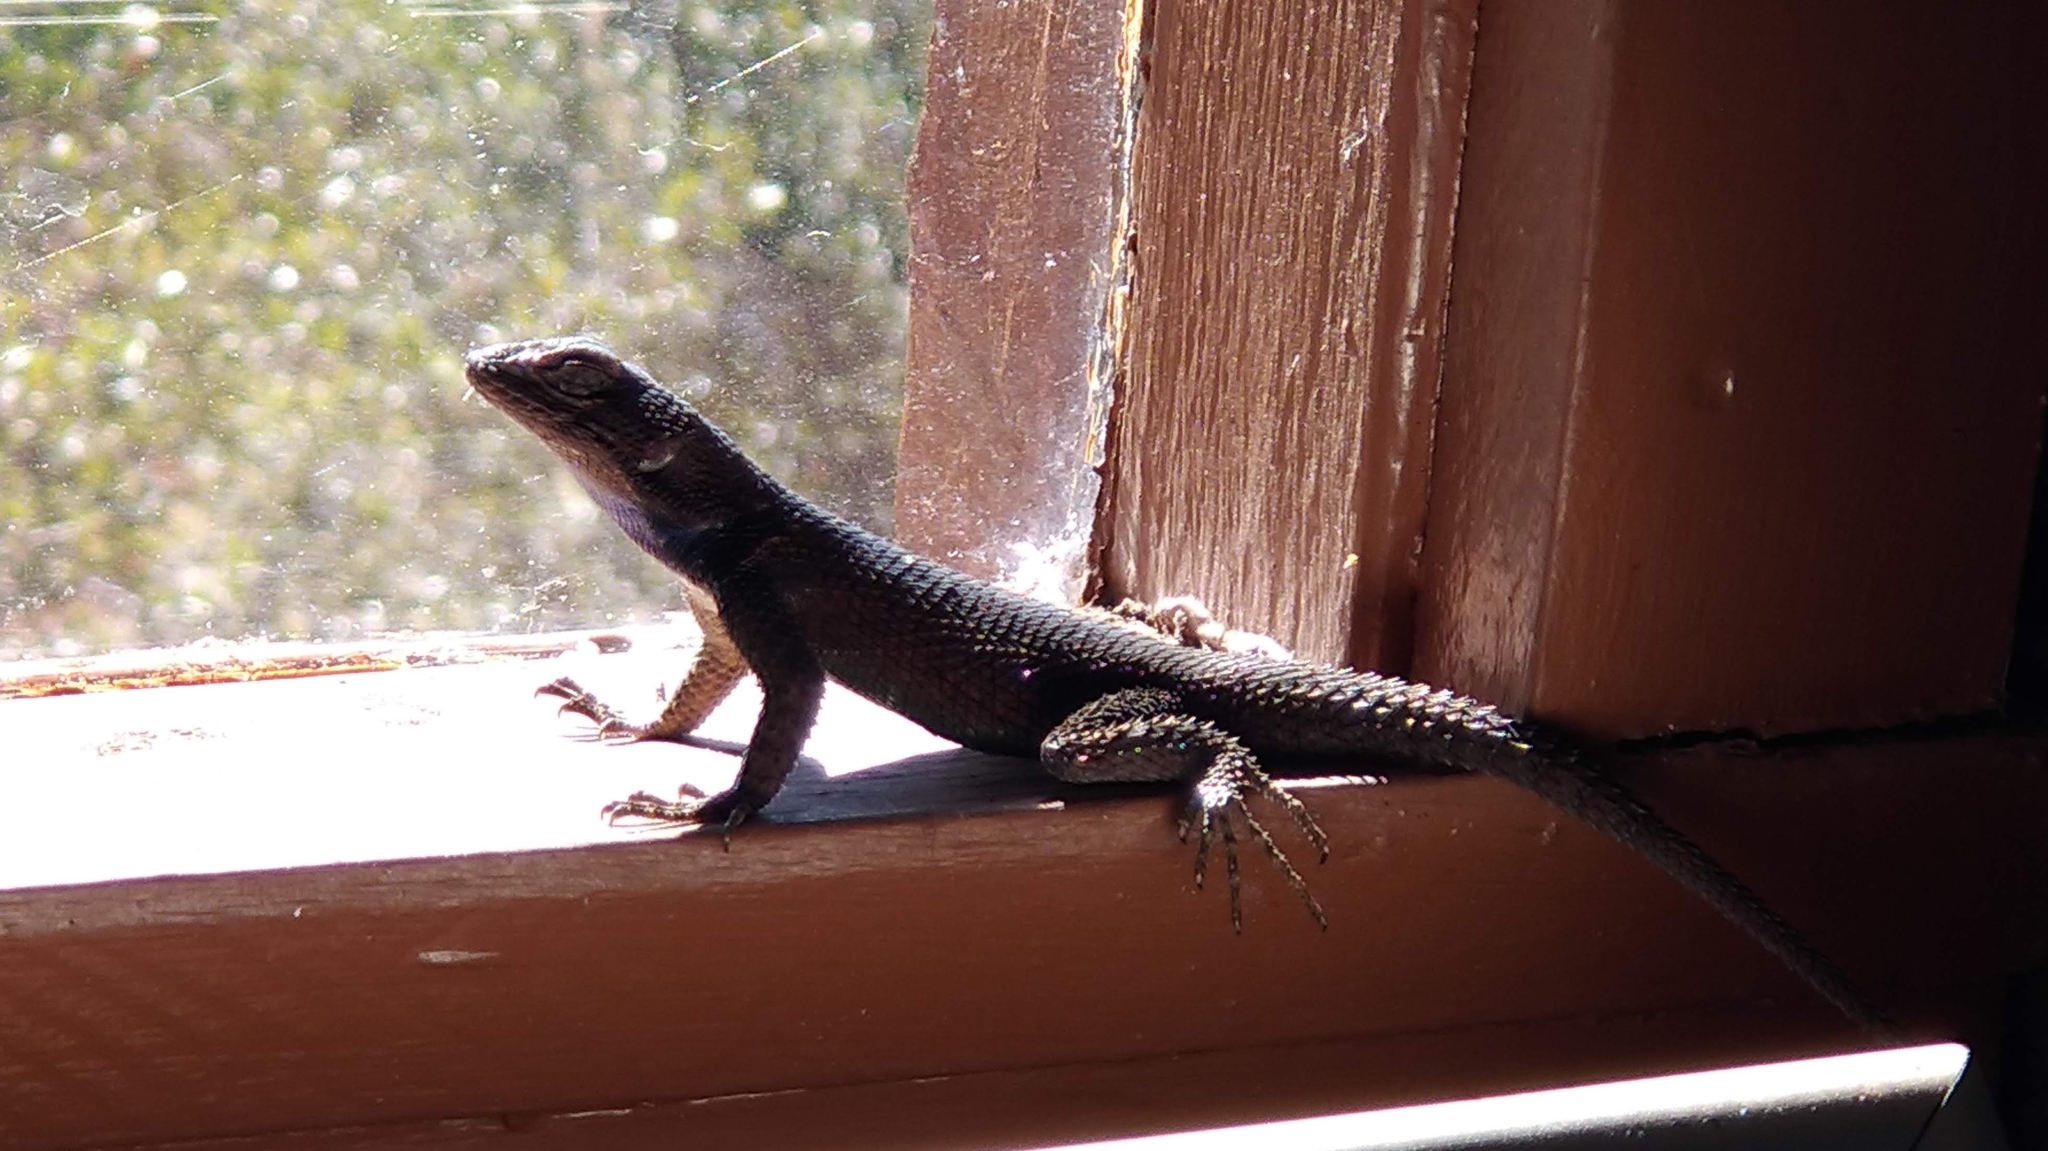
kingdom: Animalia
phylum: Chordata
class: Squamata
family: Phrynosomatidae
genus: Sceloporus
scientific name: Sceloporus jarrovii
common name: Yarrow's spiny lizard
